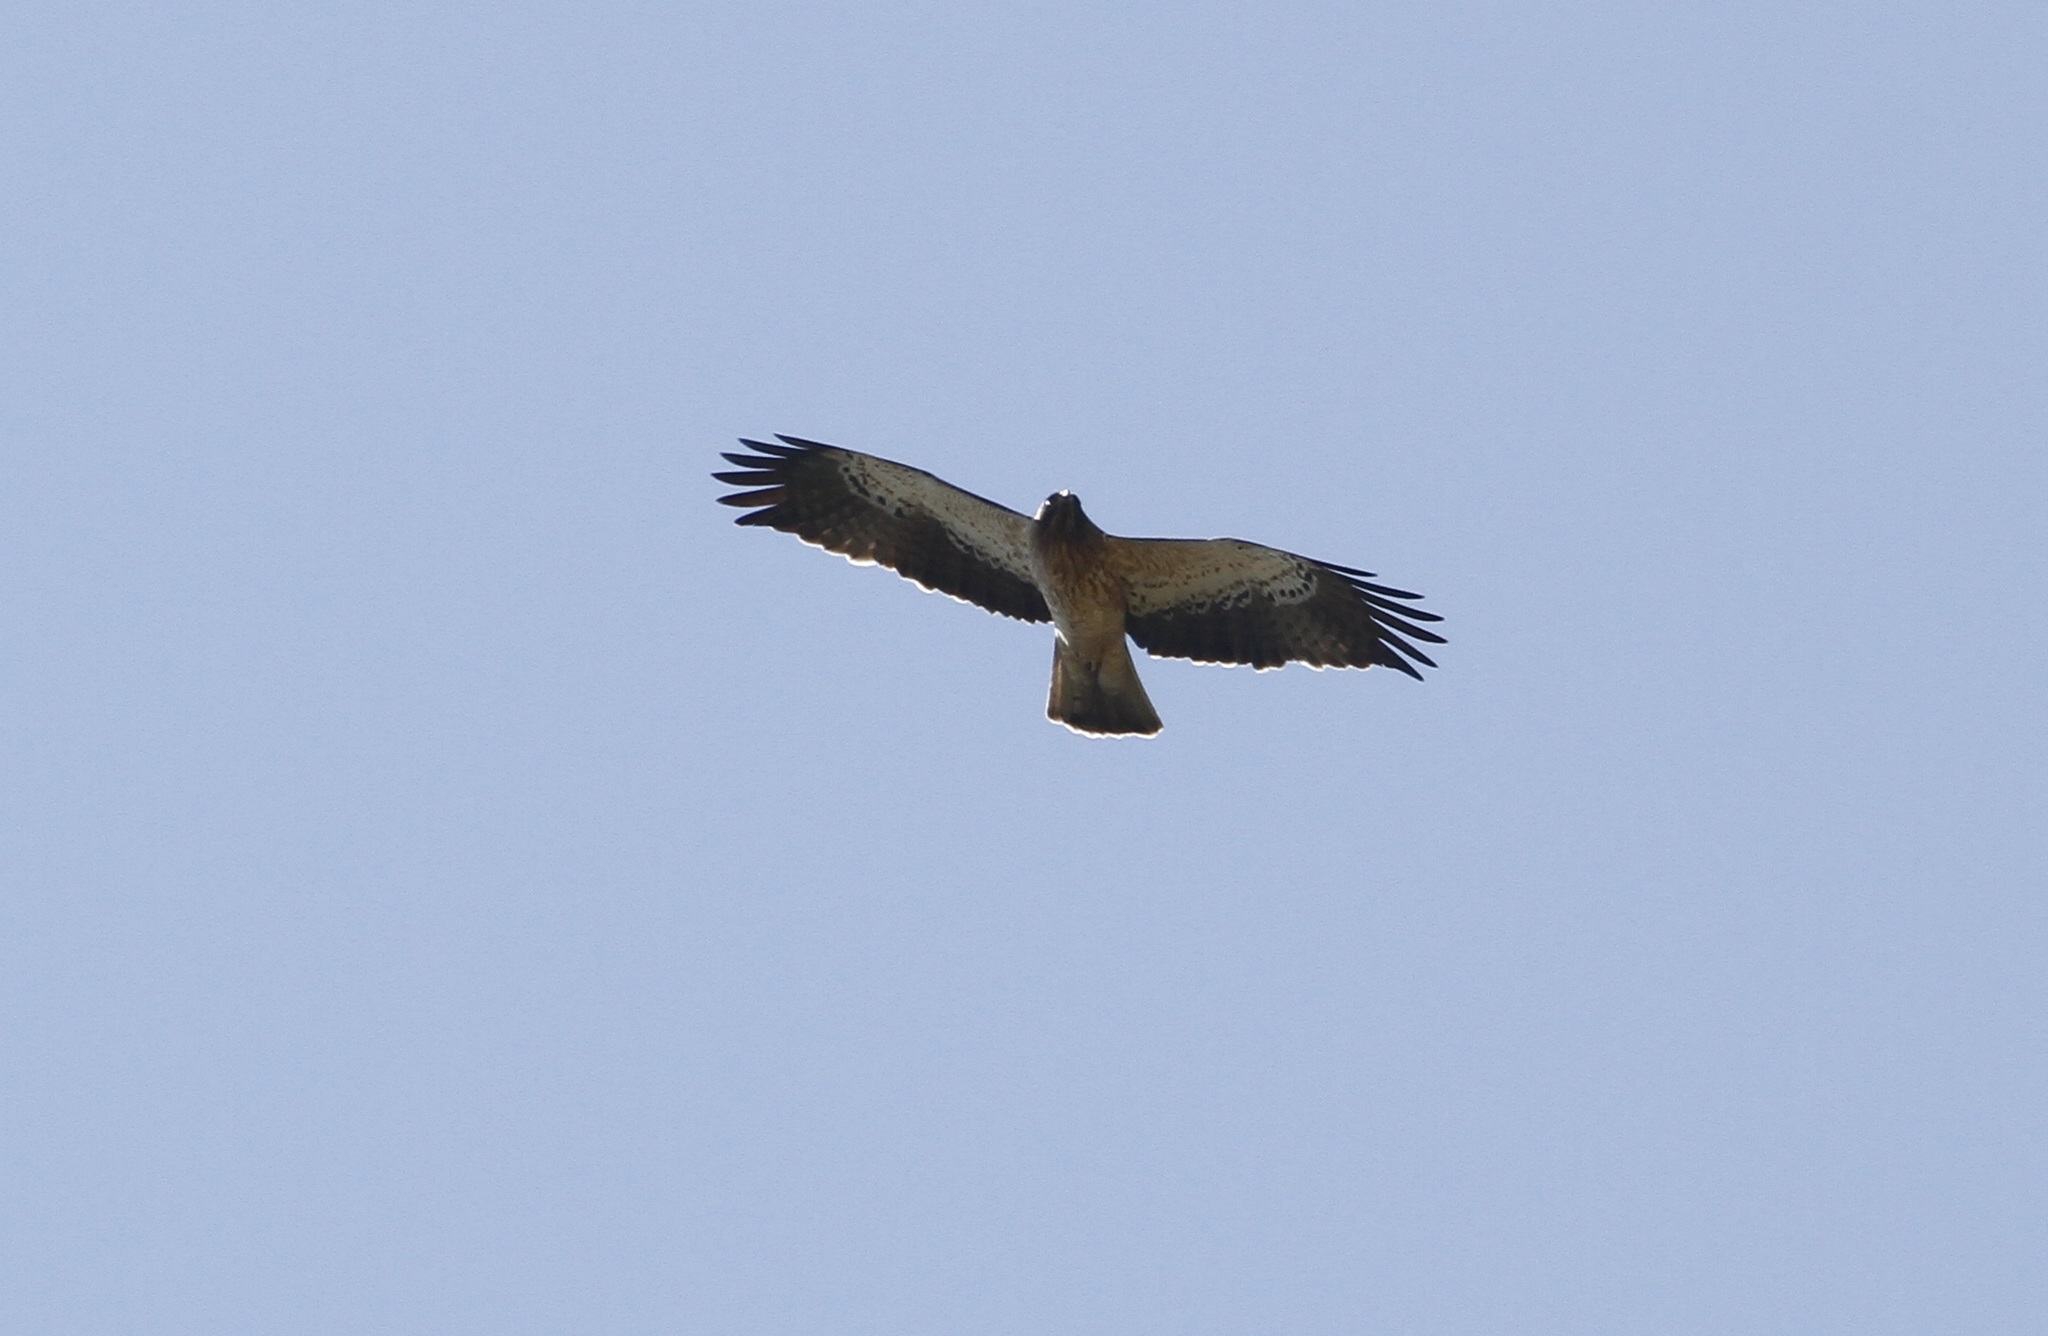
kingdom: Animalia
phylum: Chordata
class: Aves
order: Accipitriformes
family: Accipitridae
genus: Hieraaetus
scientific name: Hieraaetus pennatus
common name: Booted eagle
